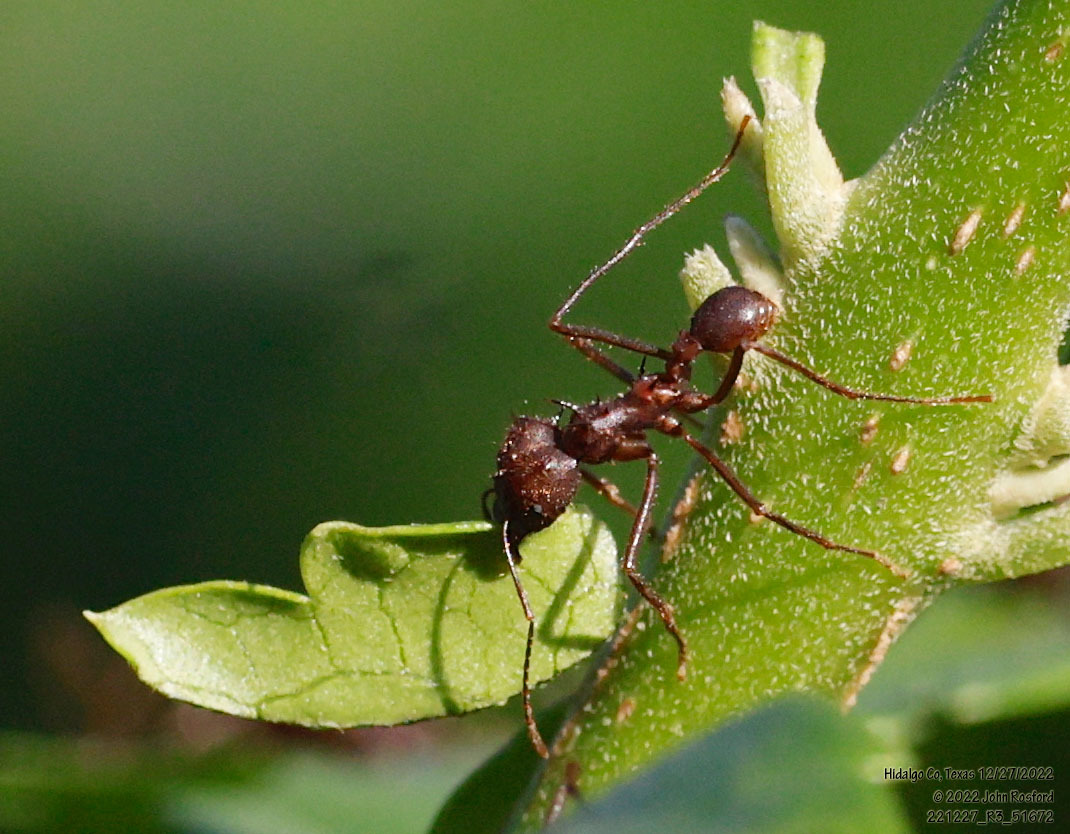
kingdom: Animalia
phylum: Arthropoda
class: Insecta
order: Hymenoptera
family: Formicidae
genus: Atta
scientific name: Atta texana
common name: Texas leafcutting ant
